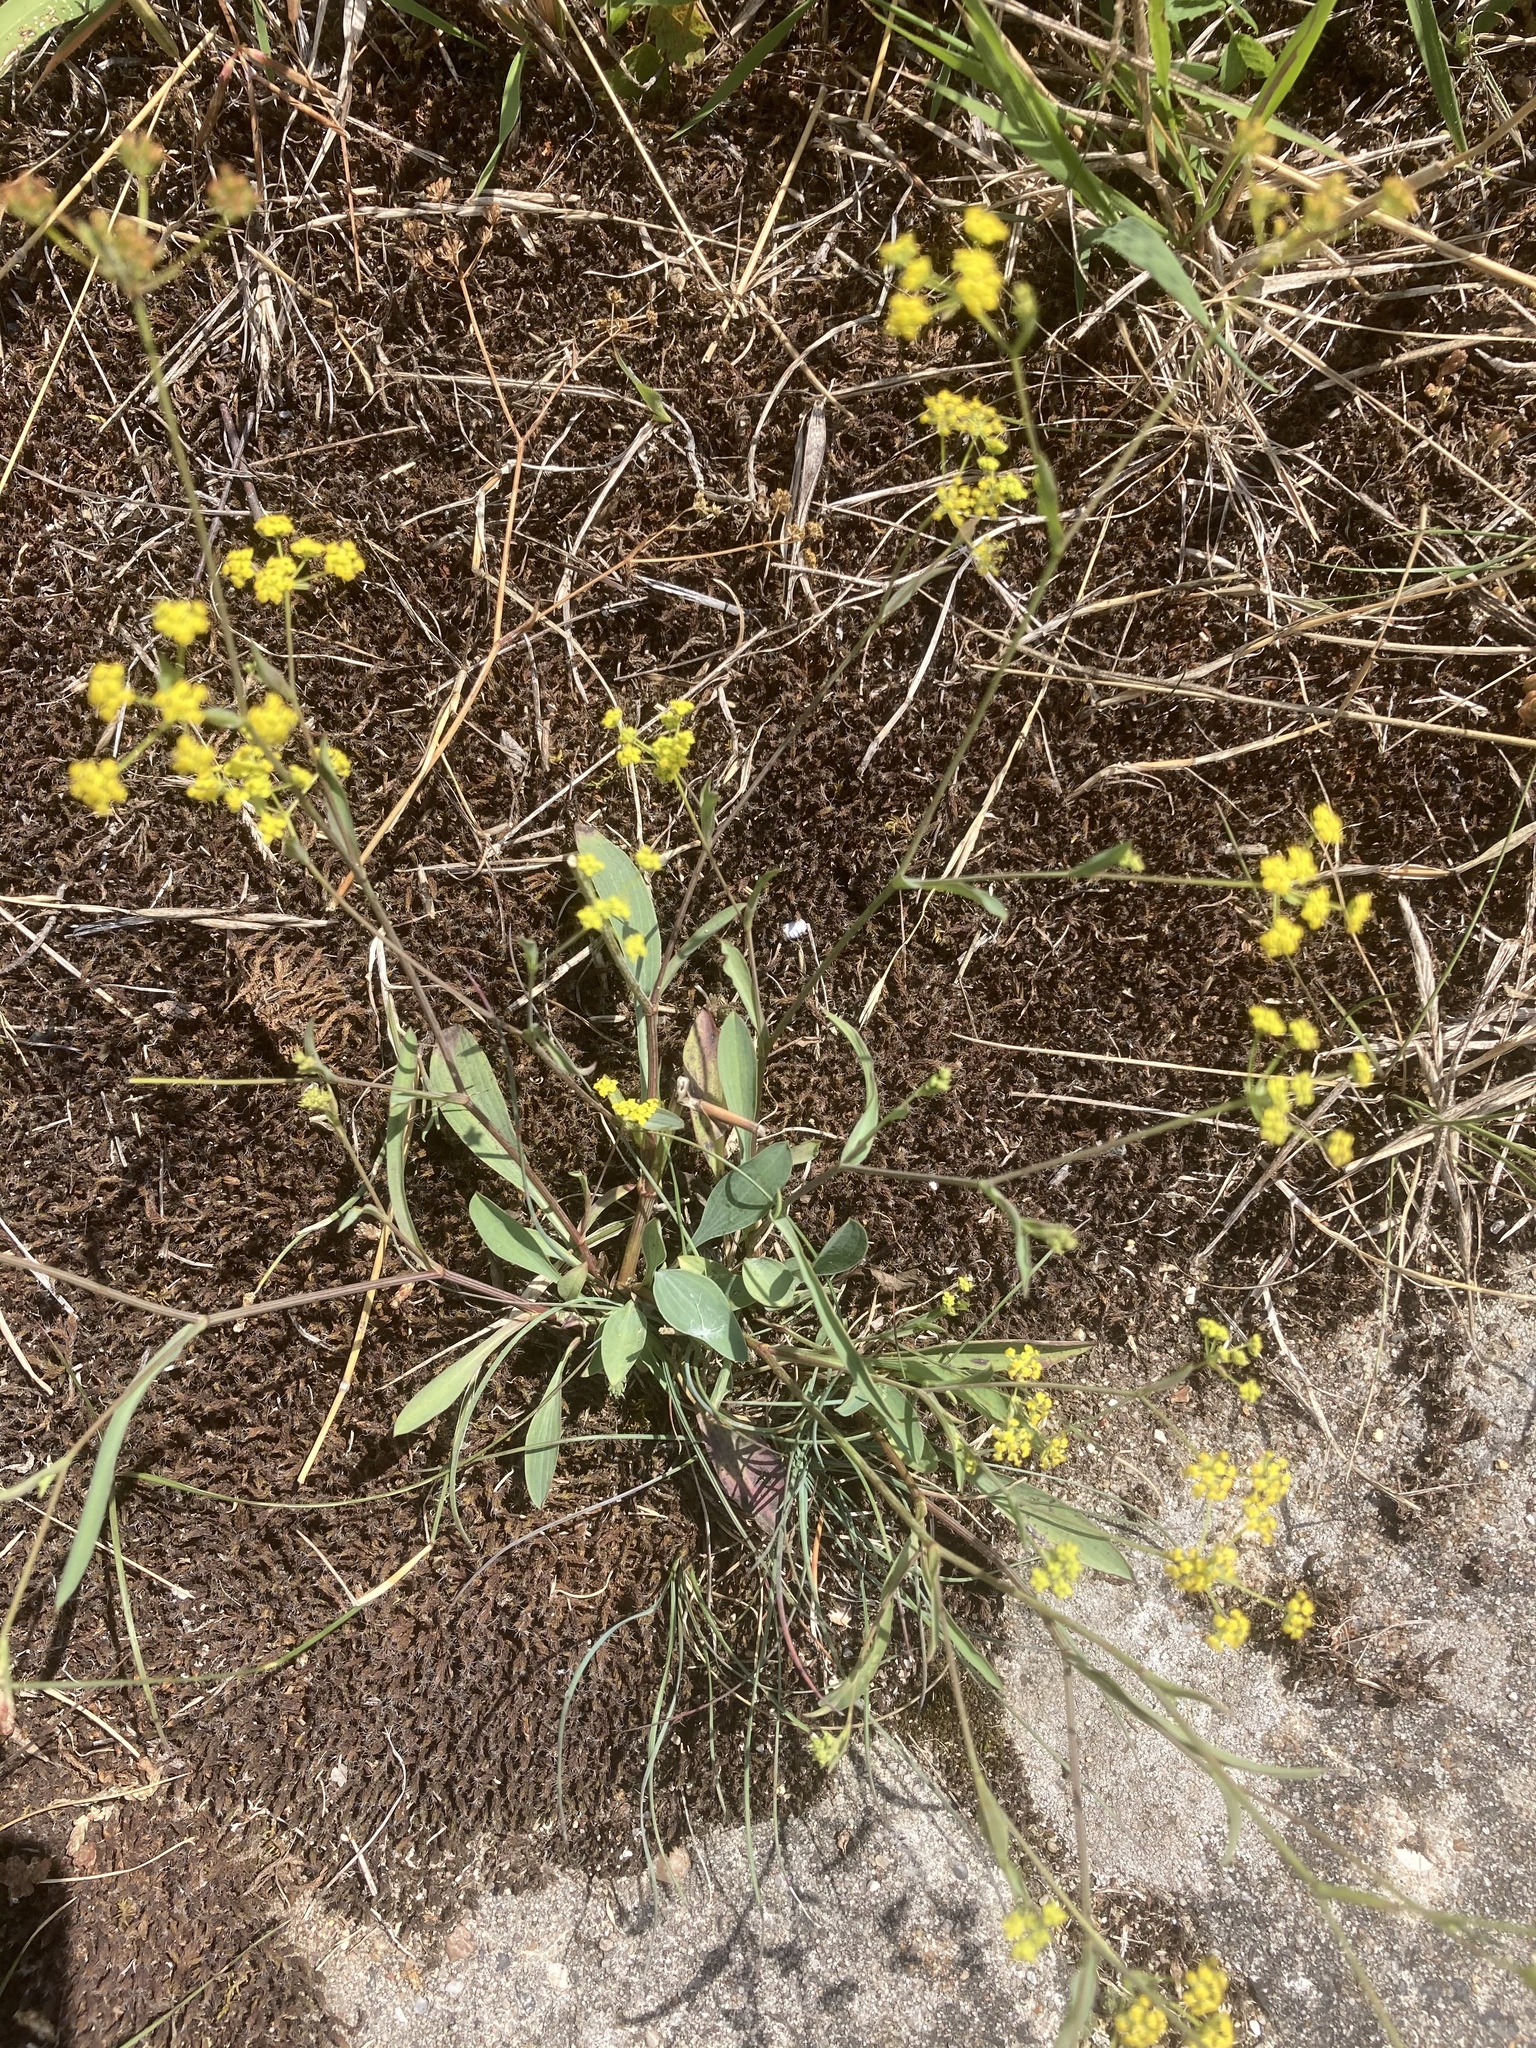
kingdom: Plantae
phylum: Tracheophyta
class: Magnoliopsida
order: Apiales
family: Apiaceae
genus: Bupleurum
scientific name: Bupleurum falcatum
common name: Sickle-leaved hare's-ear
